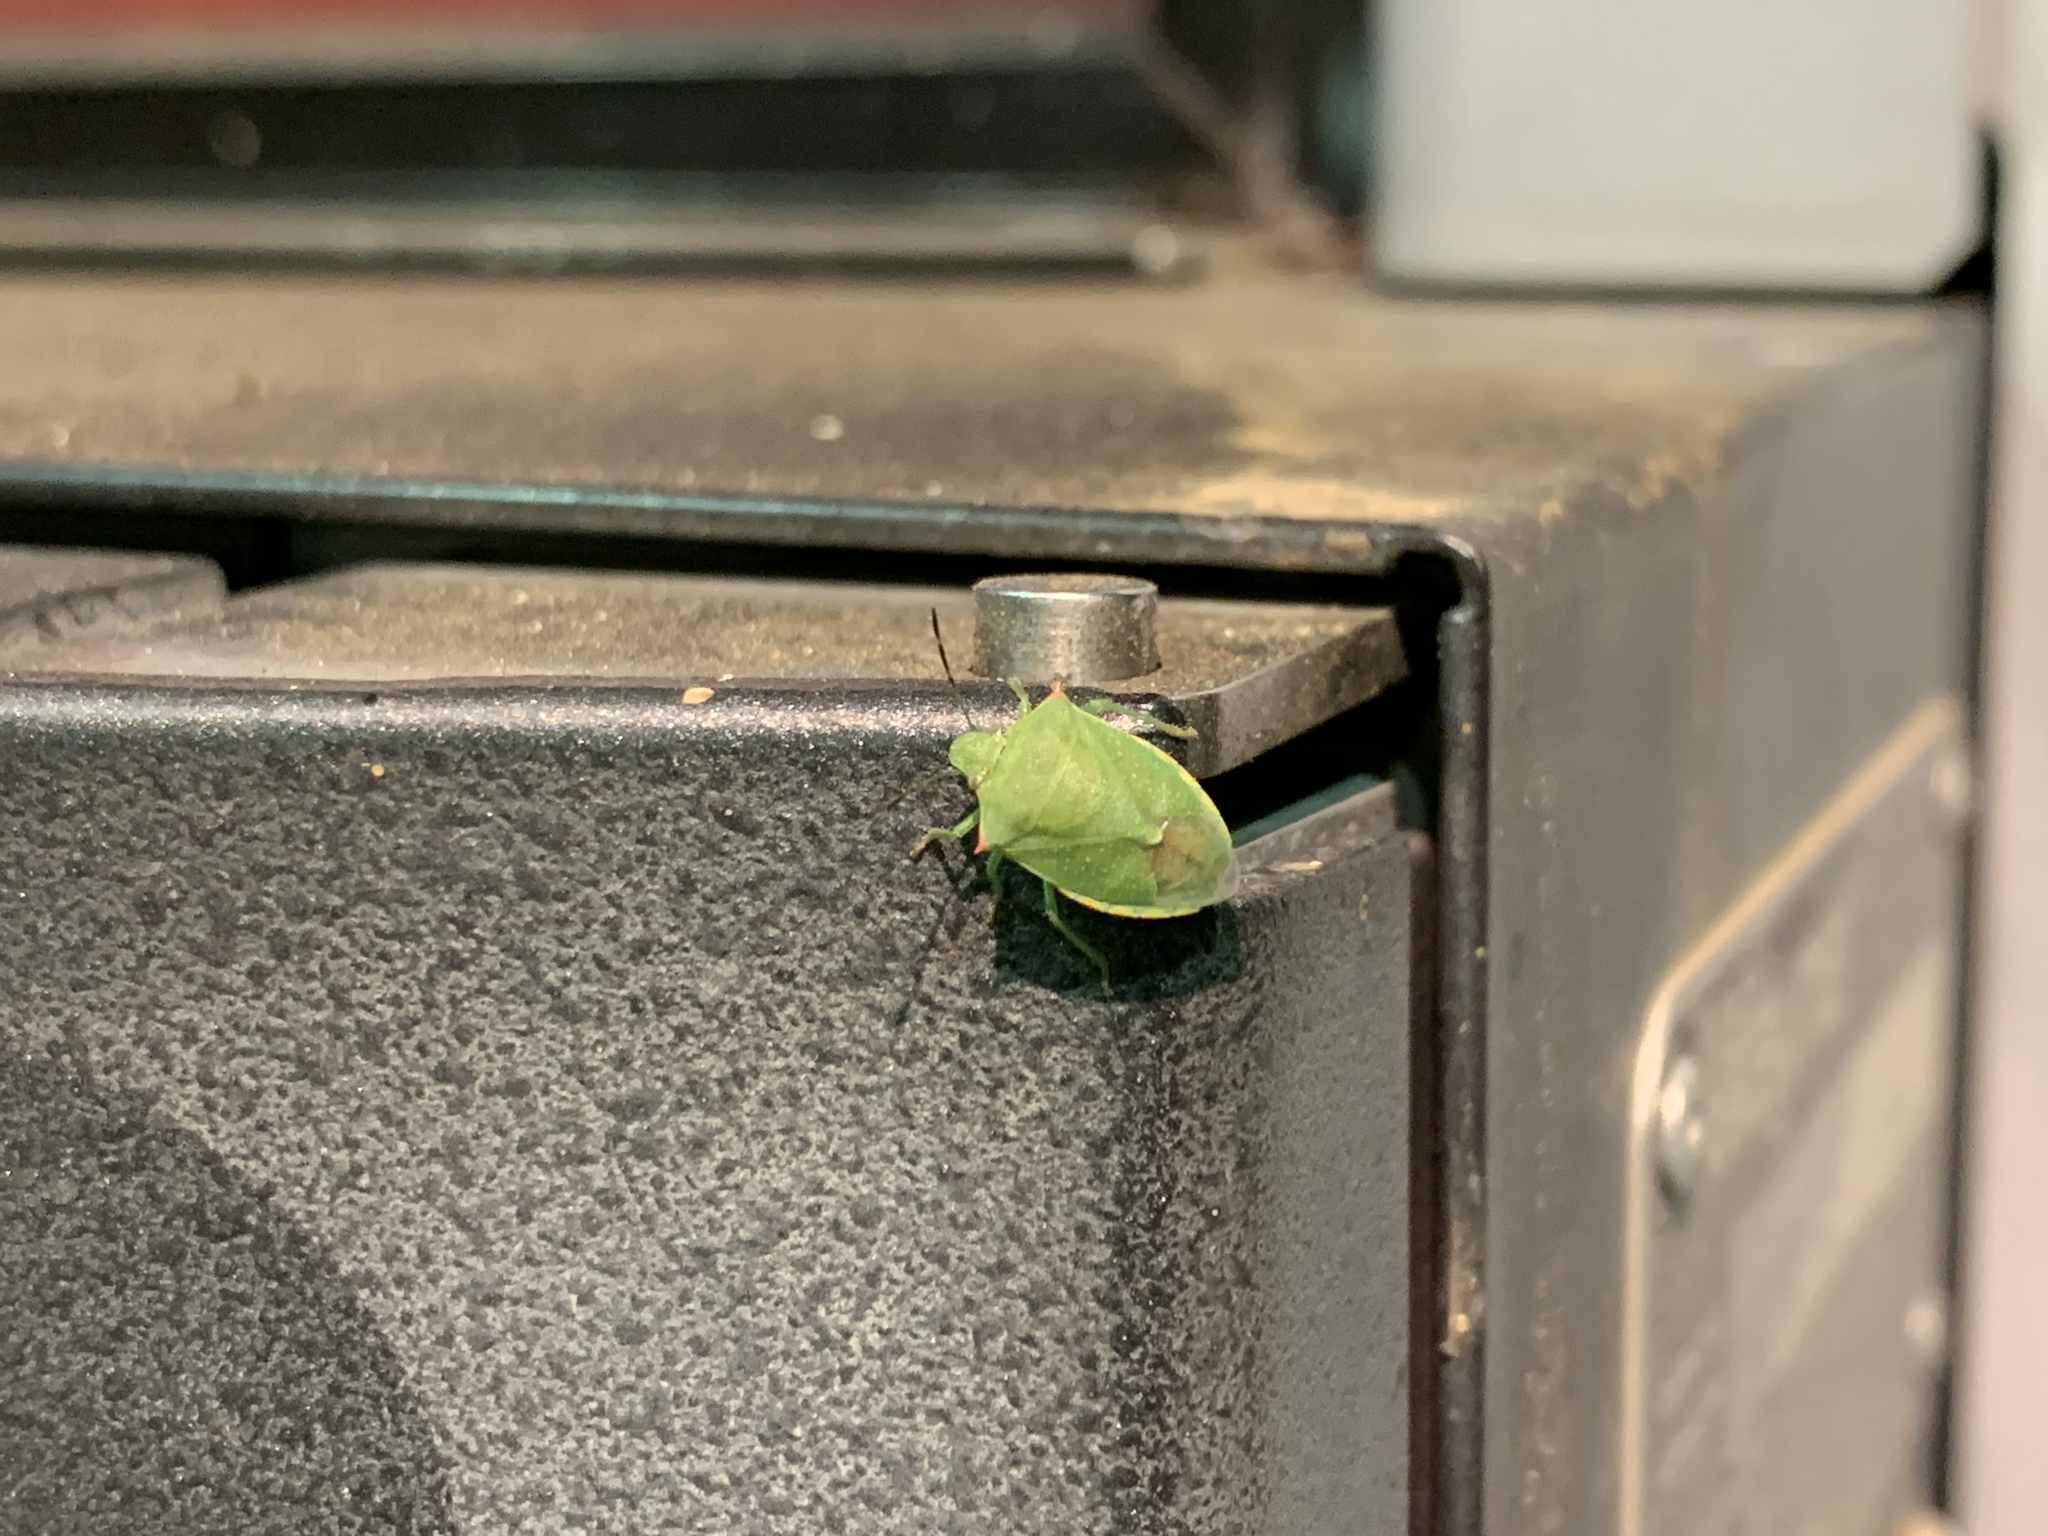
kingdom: Animalia
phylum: Arthropoda
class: Insecta
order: Hemiptera
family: Pentatomidae
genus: Thyanta
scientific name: Thyanta accerra
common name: Stink bug
